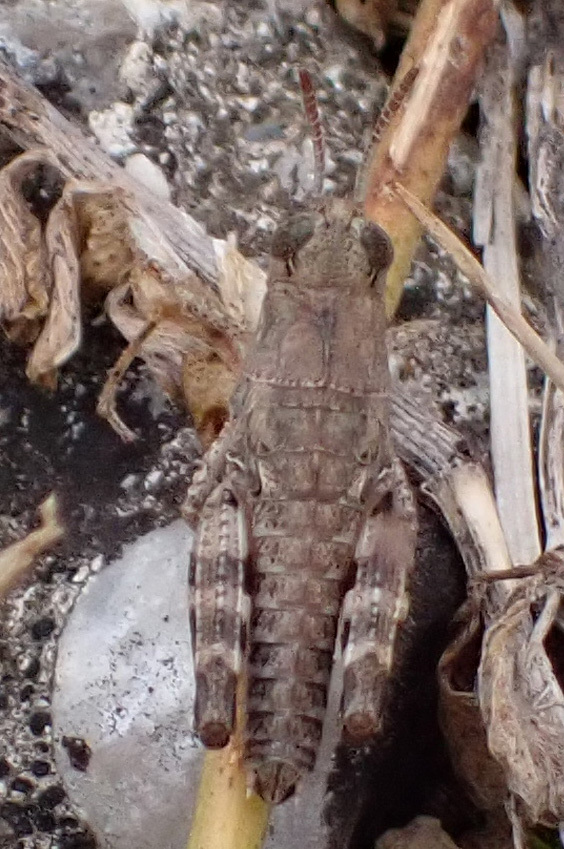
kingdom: Animalia
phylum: Arthropoda
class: Insecta
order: Orthoptera
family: Acrididae
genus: Calliptamus
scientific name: Calliptamus italicus
